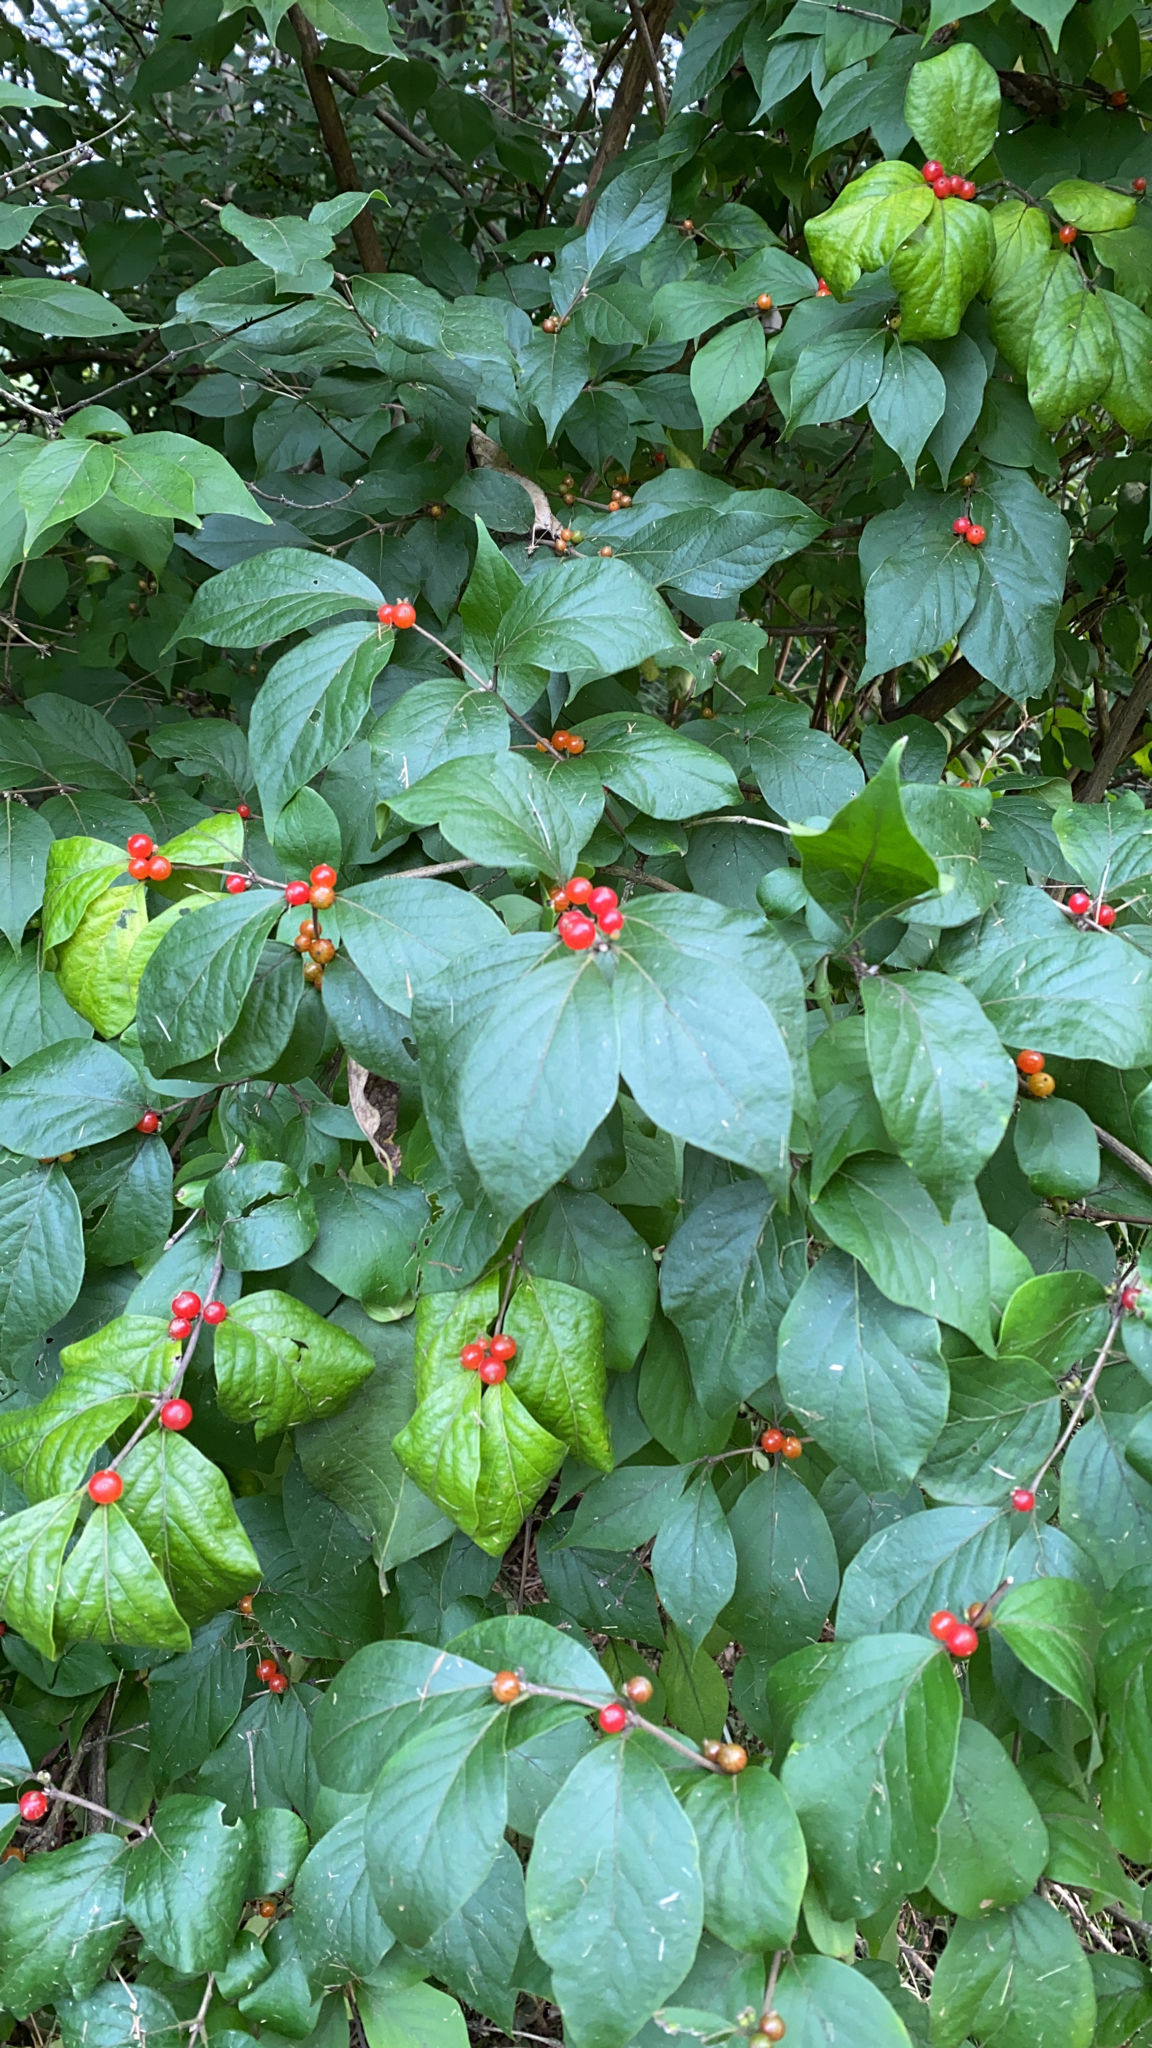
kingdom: Plantae
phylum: Tracheophyta
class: Magnoliopsida
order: Dipsacales
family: Caprifoliaceae
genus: Lonicera
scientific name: Lonicera maackii
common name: Amur honeysuckle
